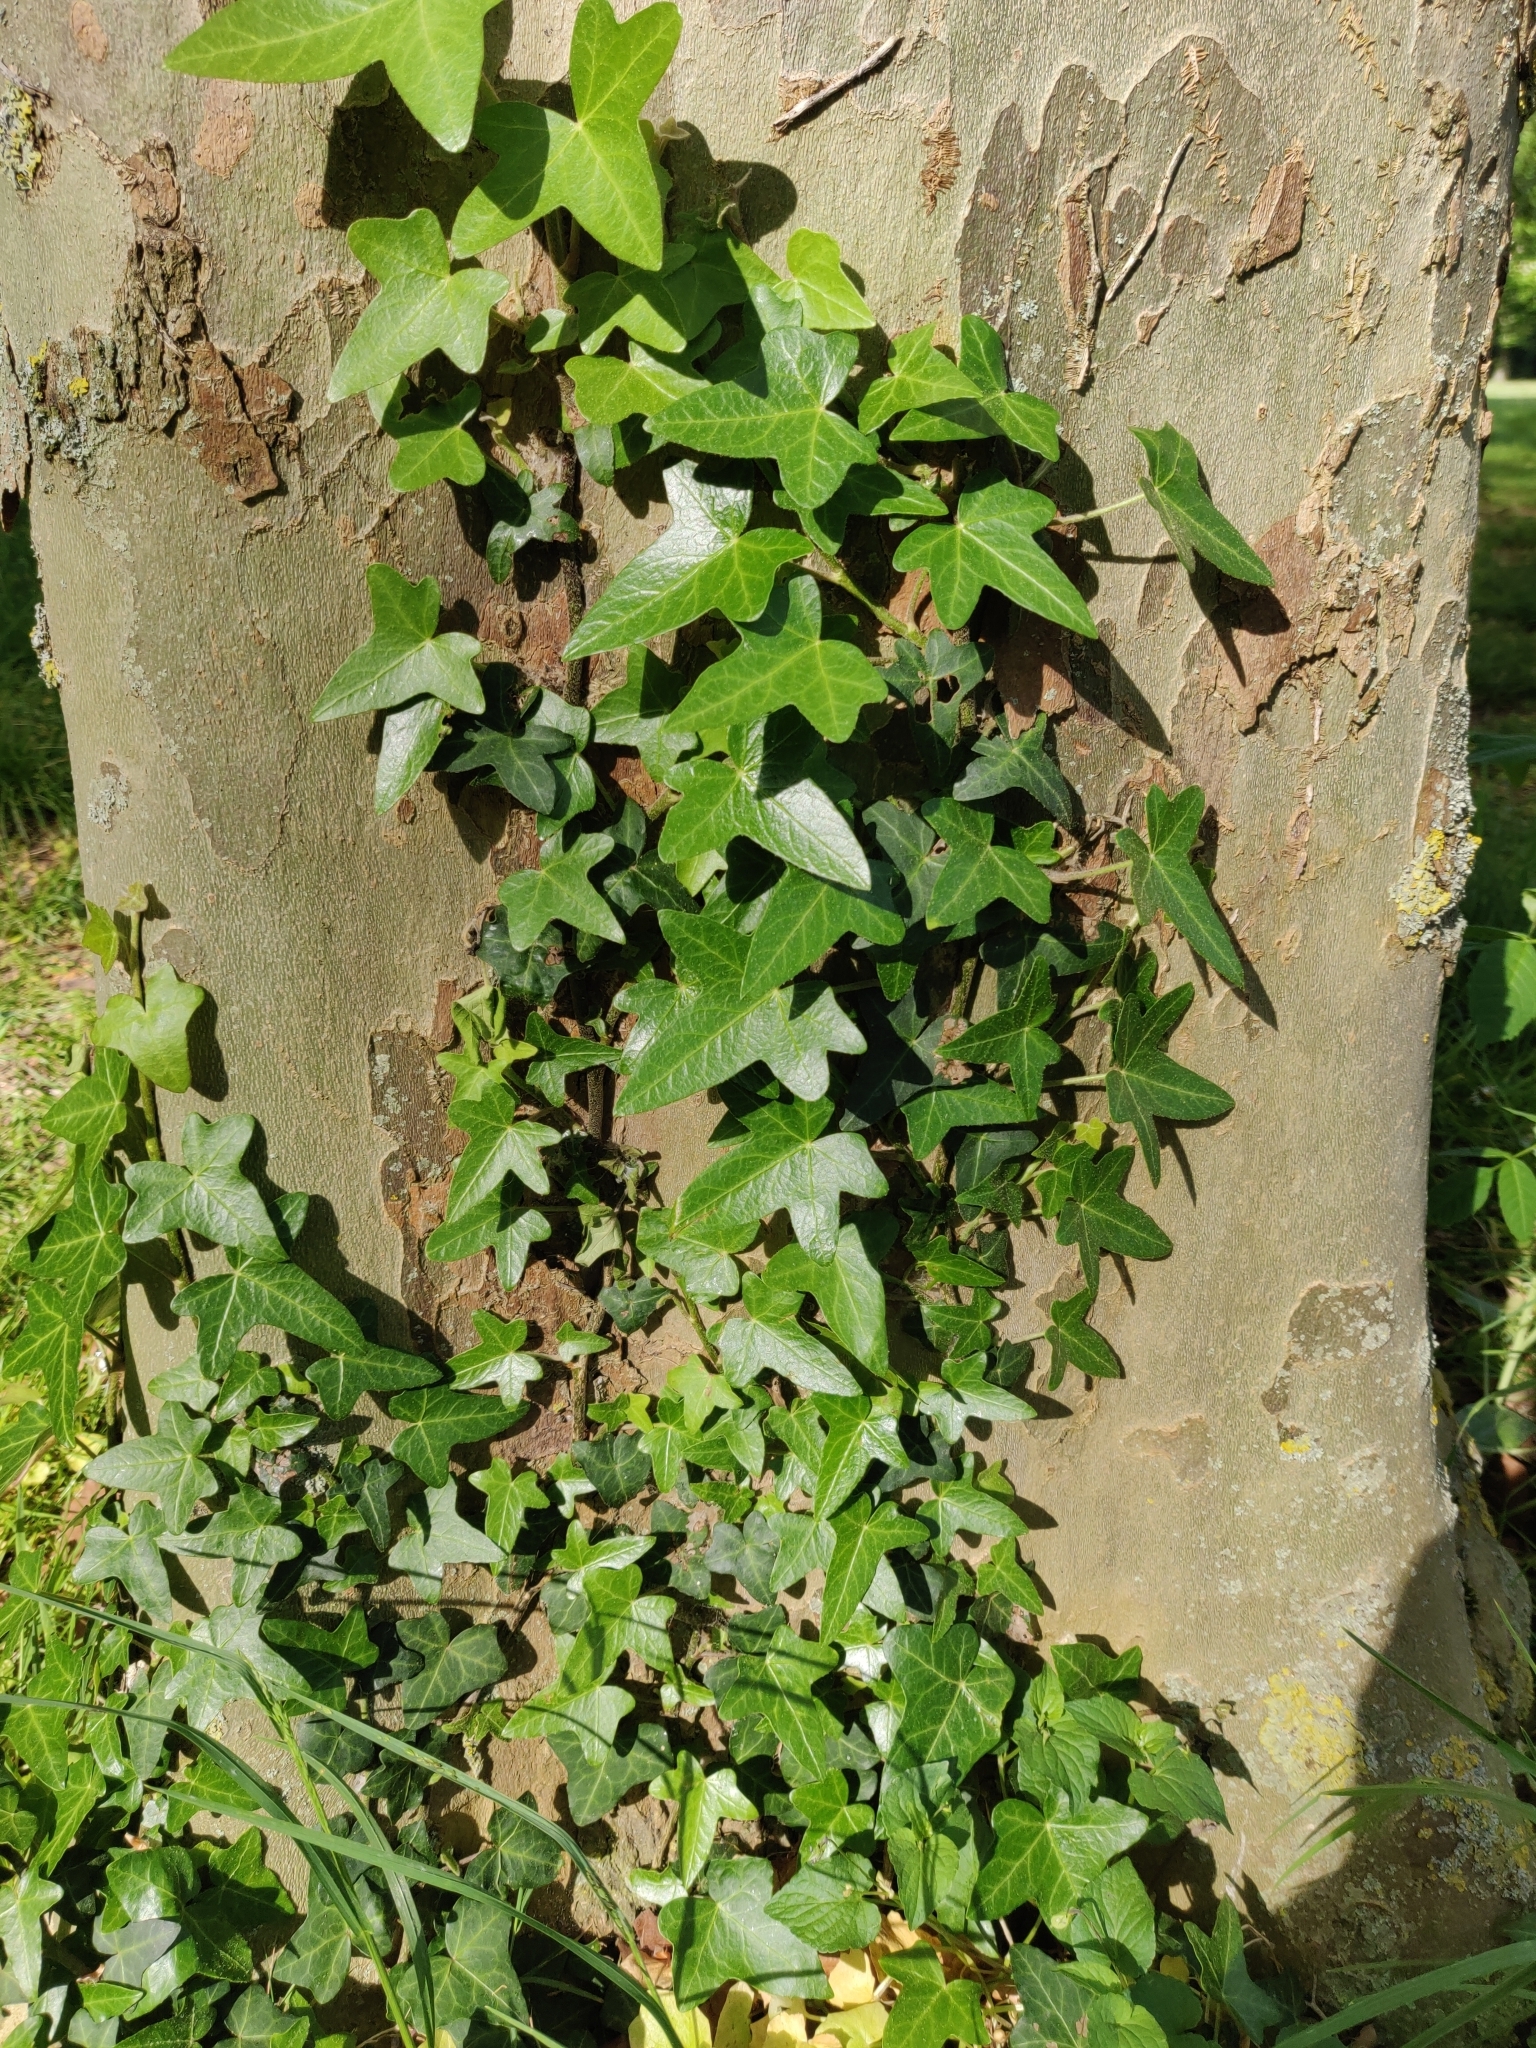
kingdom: Plantae
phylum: Tracheophyta
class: Magnoliopsida
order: Apiales
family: Araliaceae
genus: Hedera
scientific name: Hedera helix
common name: Ivy
